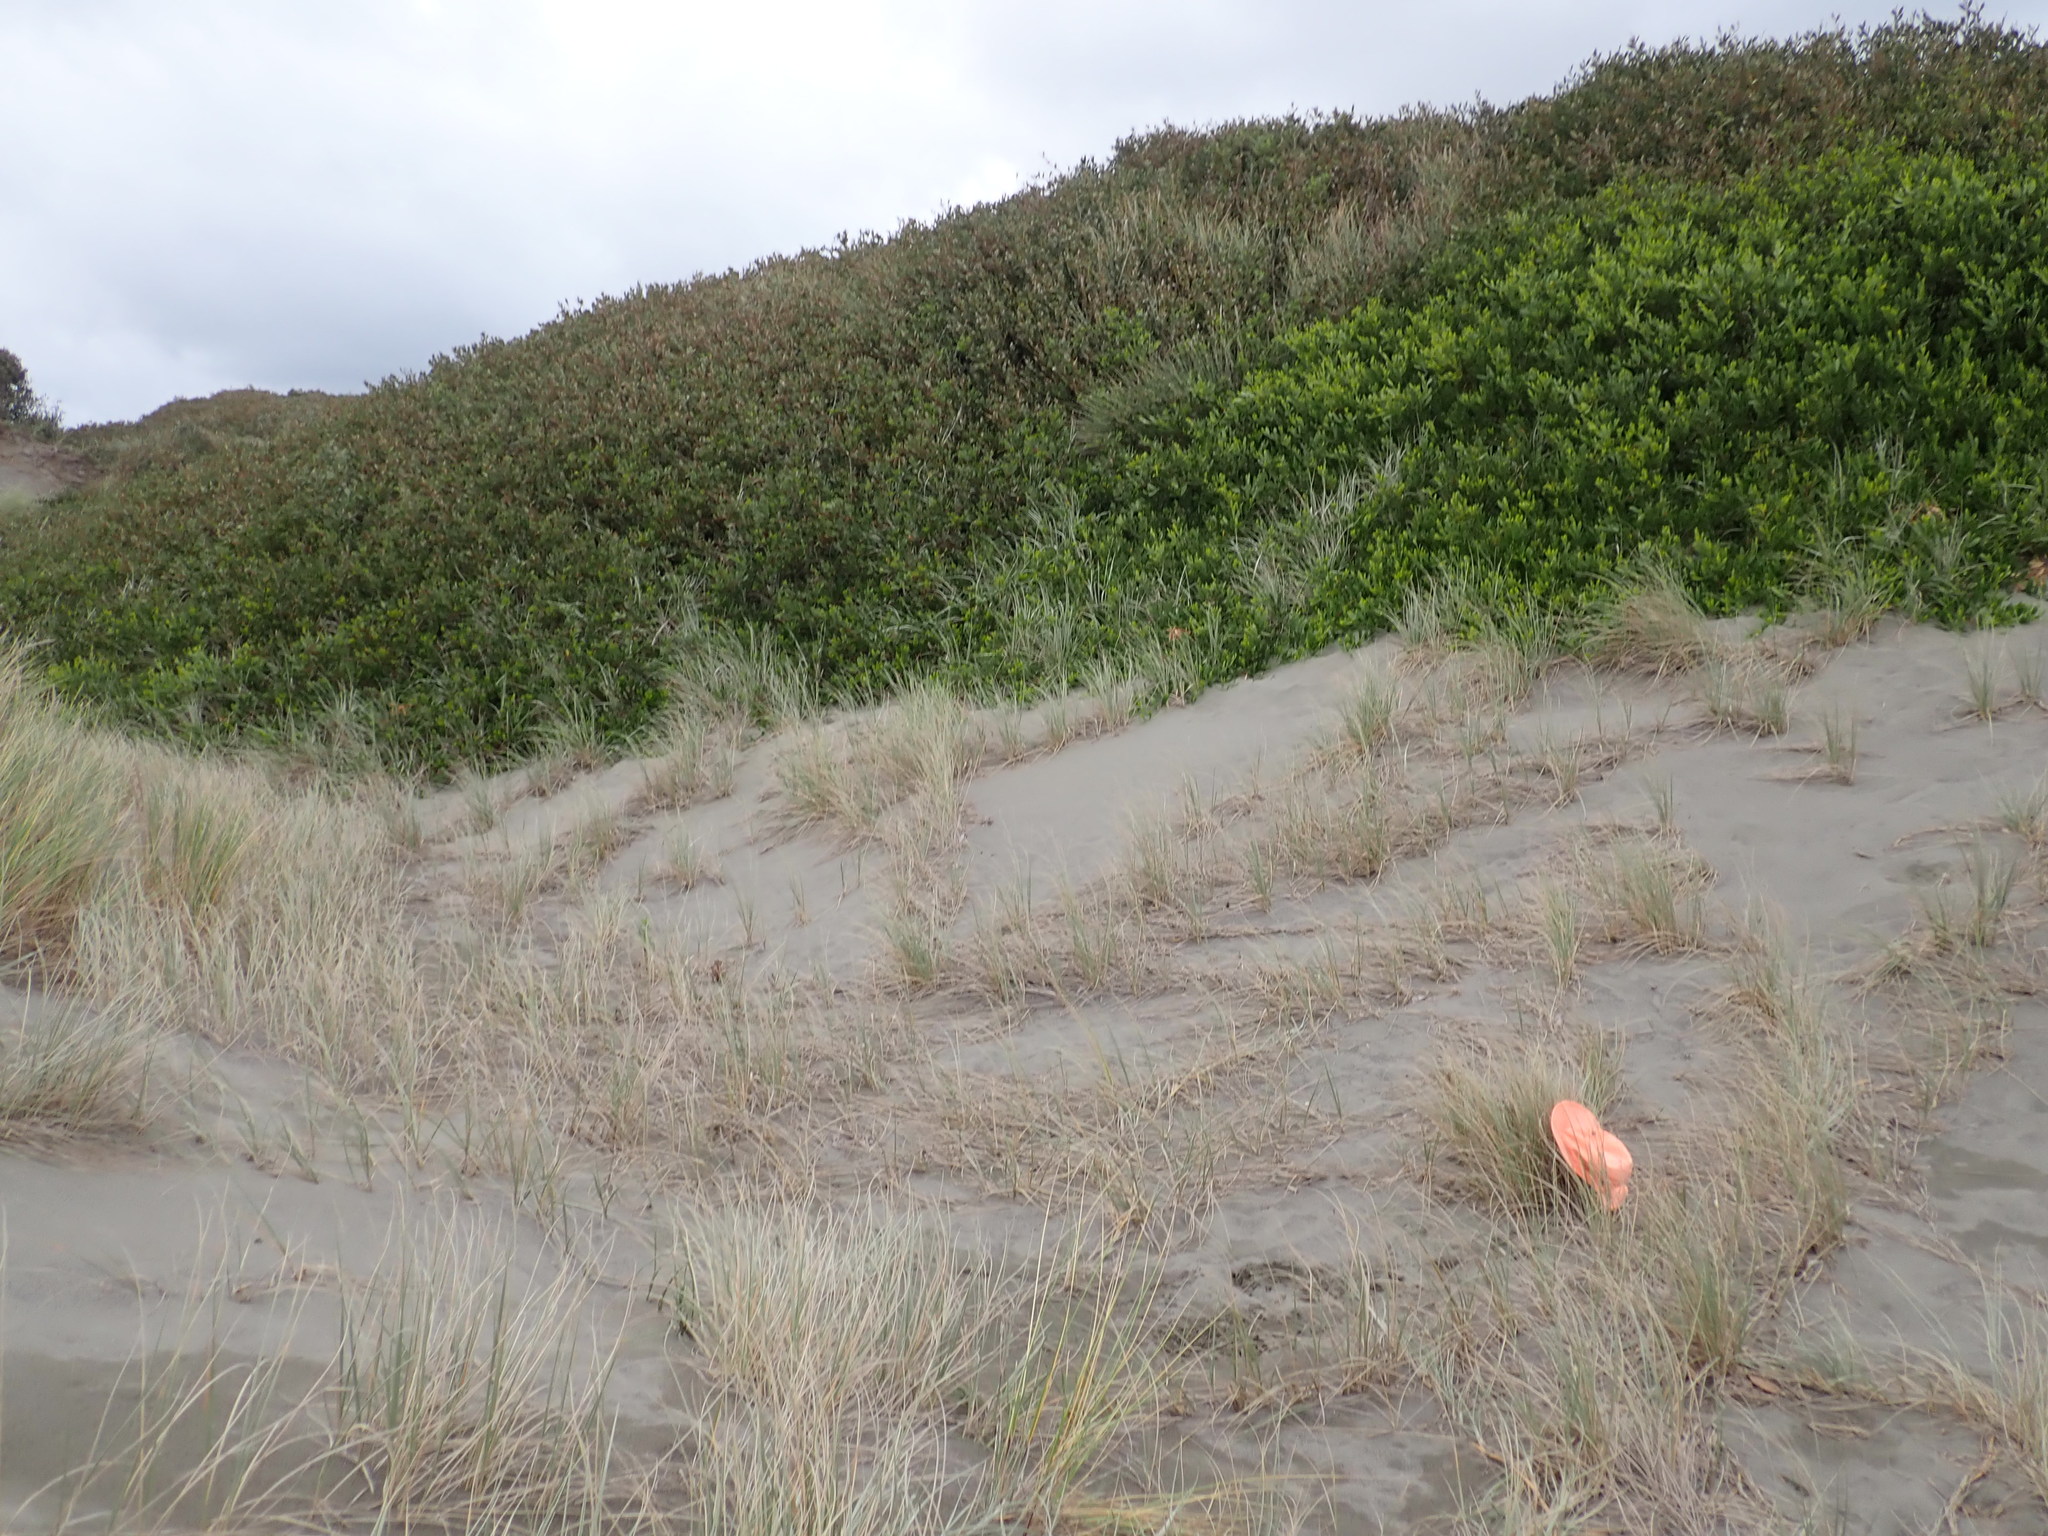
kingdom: Animalia
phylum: Arthropoda
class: Arachnida
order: Araneae
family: Theridiidae
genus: Latrodectus
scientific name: Latrodectus katipo
